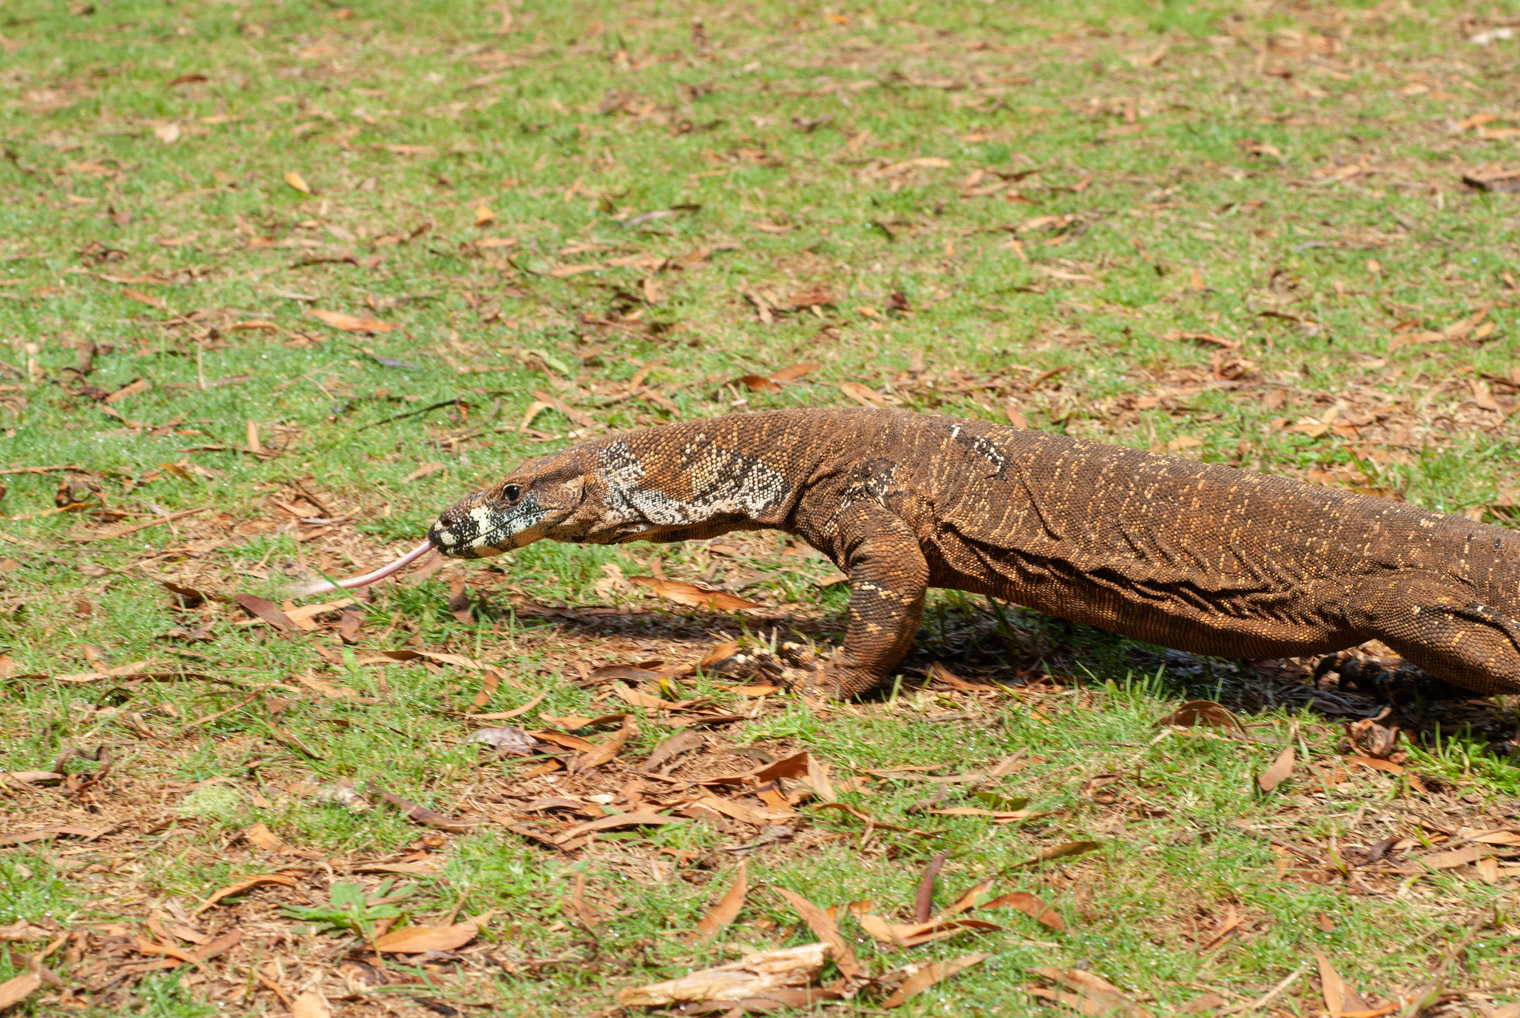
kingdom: Animalia
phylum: Chordata
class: Squamata
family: Varanidae
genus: Varanus
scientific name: Varanus varius
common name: Lace monitor
